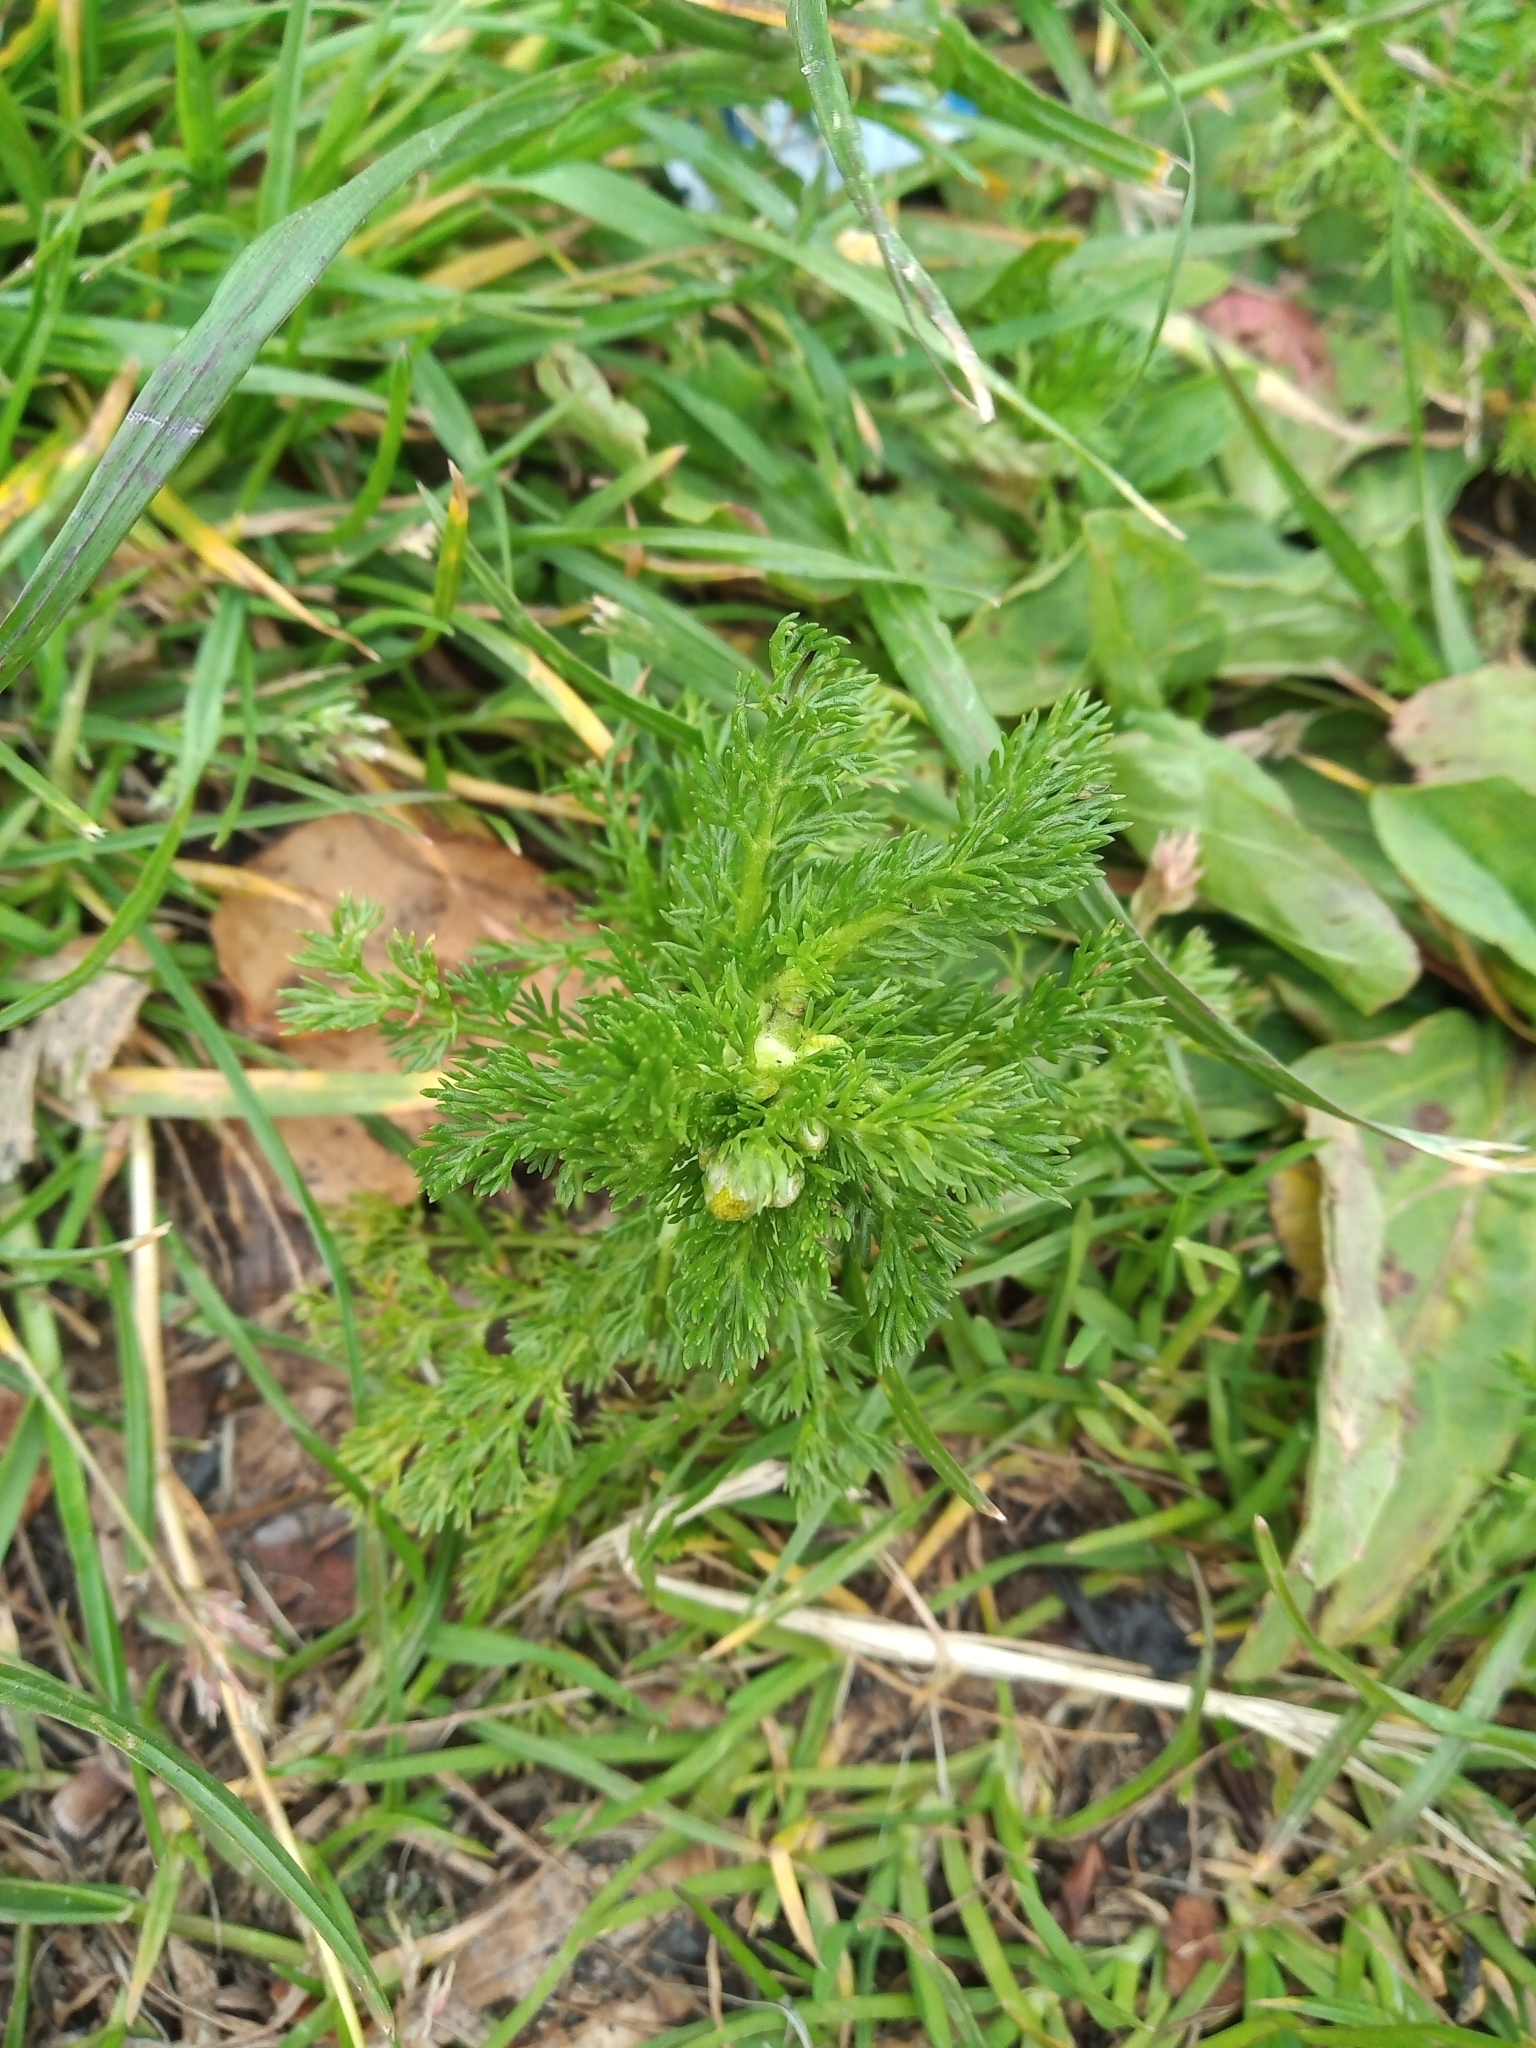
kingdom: Plantae
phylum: Tracheophyta
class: Magnoliopsida
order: Asterales
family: Asteraceae
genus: Matricaria
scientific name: Matricaria discoidea
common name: Disc mayweed
